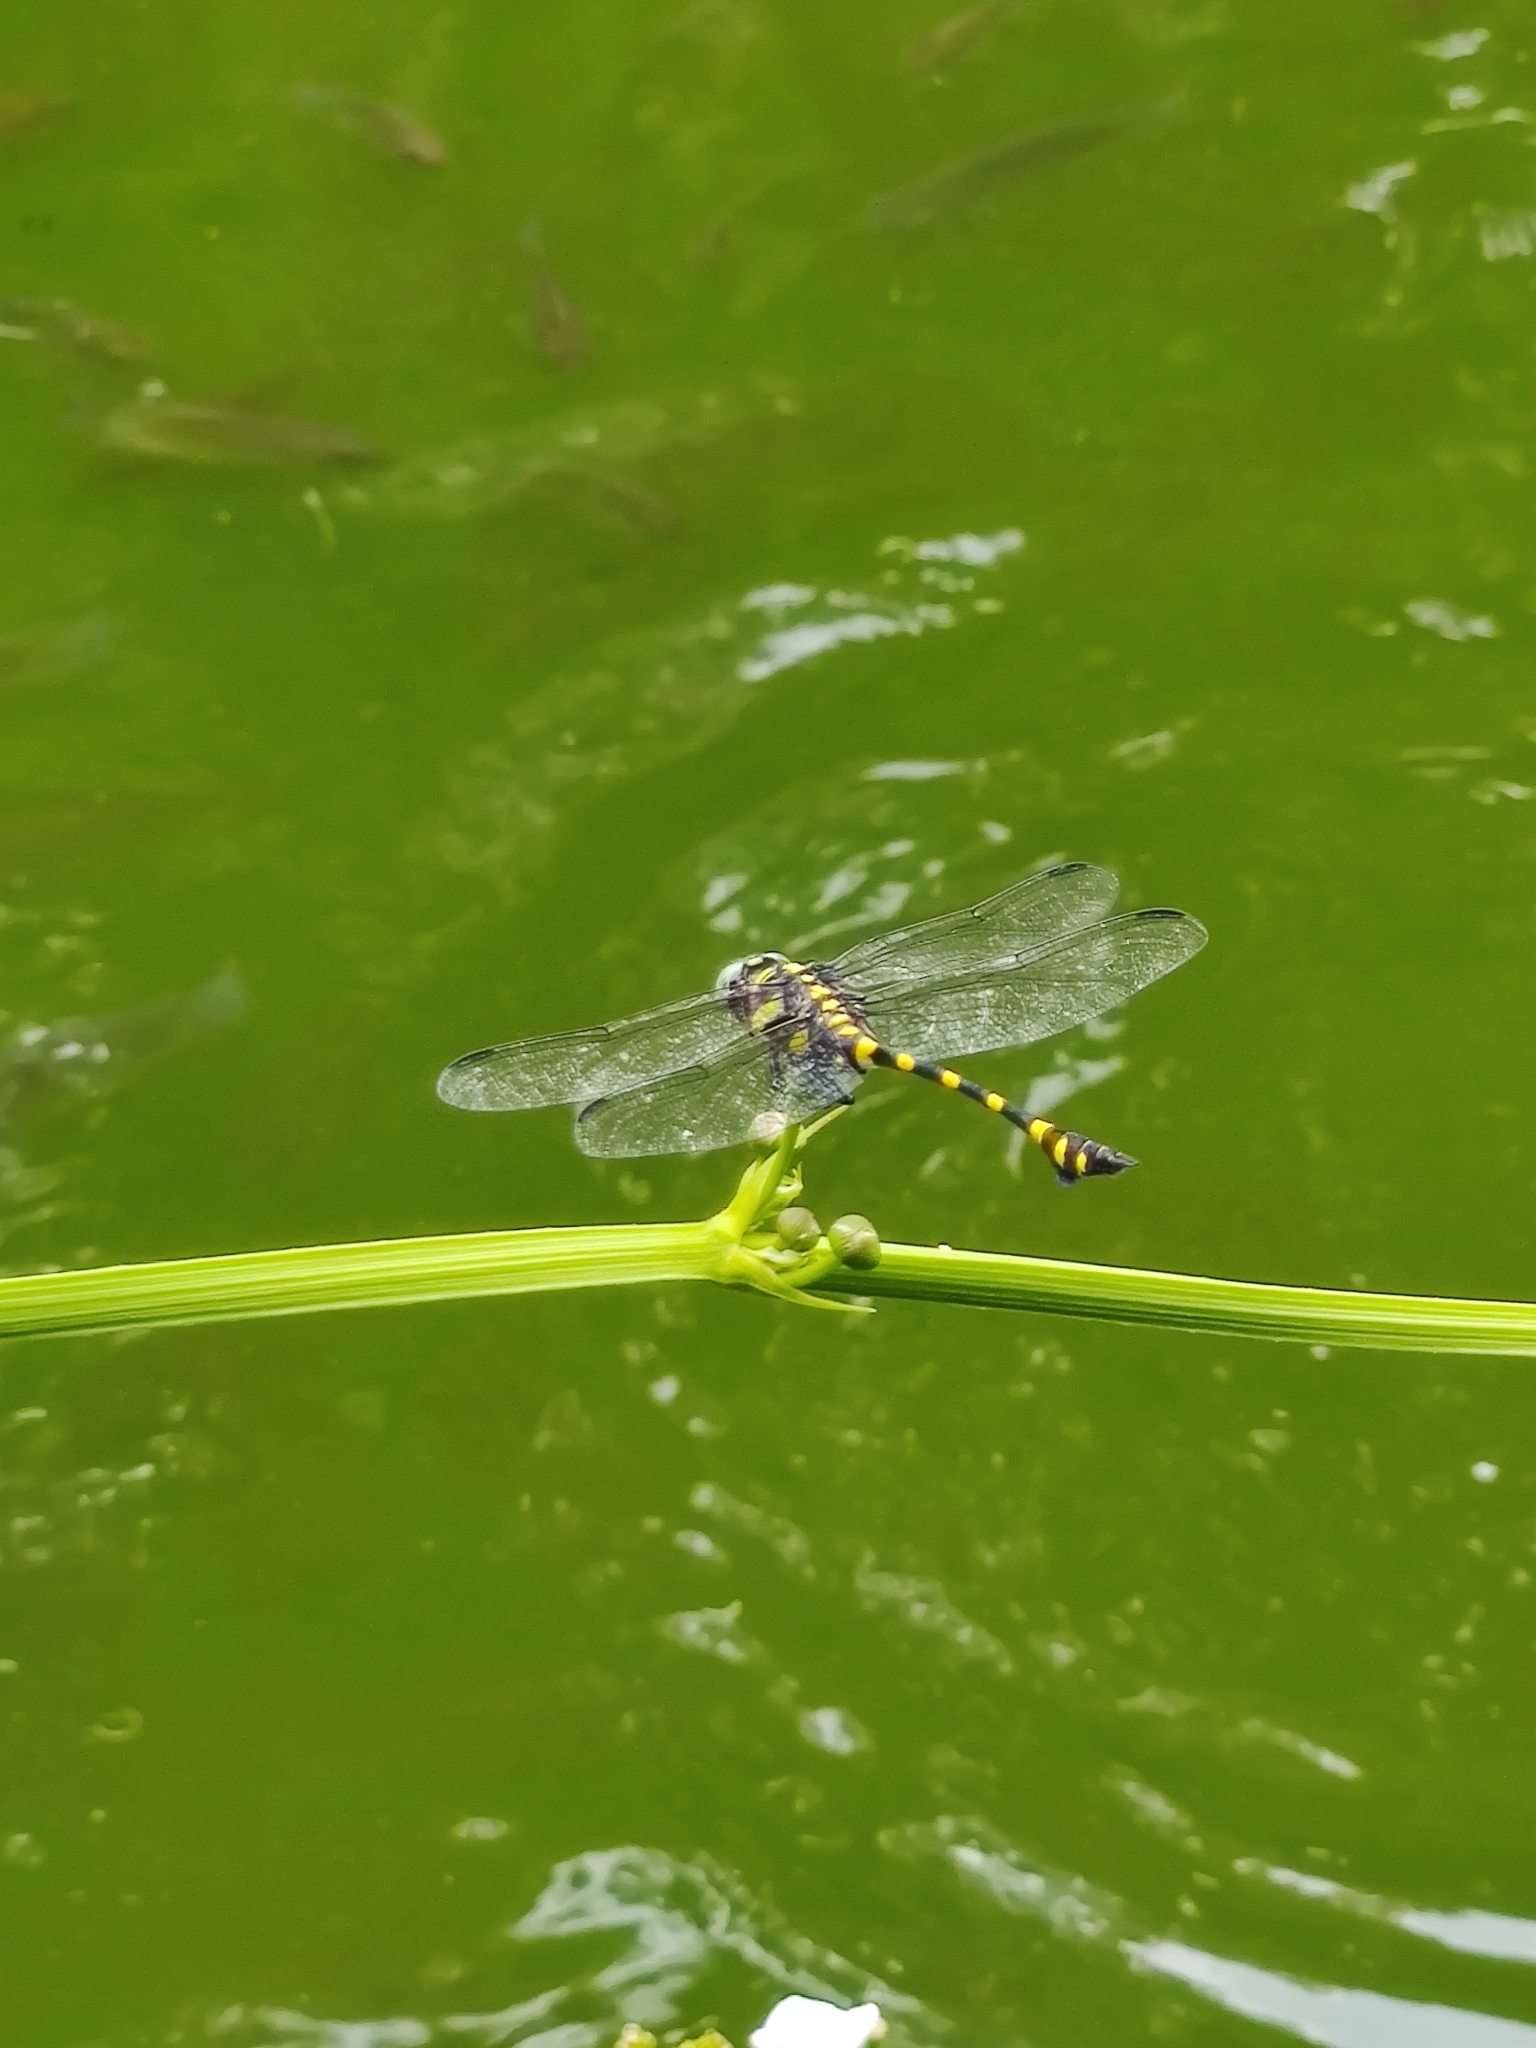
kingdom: Animalia
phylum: Arthropoda
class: Insecta
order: Odonata
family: Gomphidae
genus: Ictinogomphus
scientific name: Ictinogomphus decoratus
